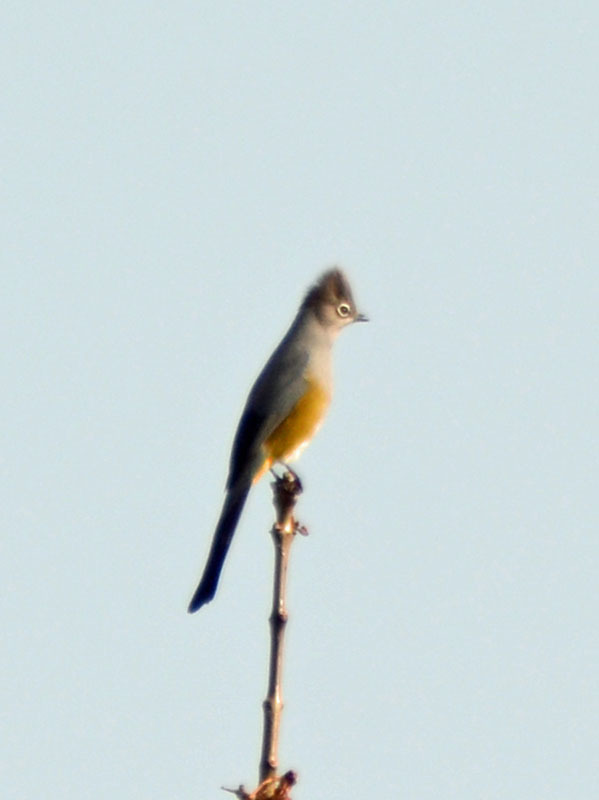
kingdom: Animalia
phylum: Chordata
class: Aves
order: Passeriformes
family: Ptilogonatidae
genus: Ptilogonys
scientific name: Ptilogonys cinereus
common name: Gray silky-flycatcher
